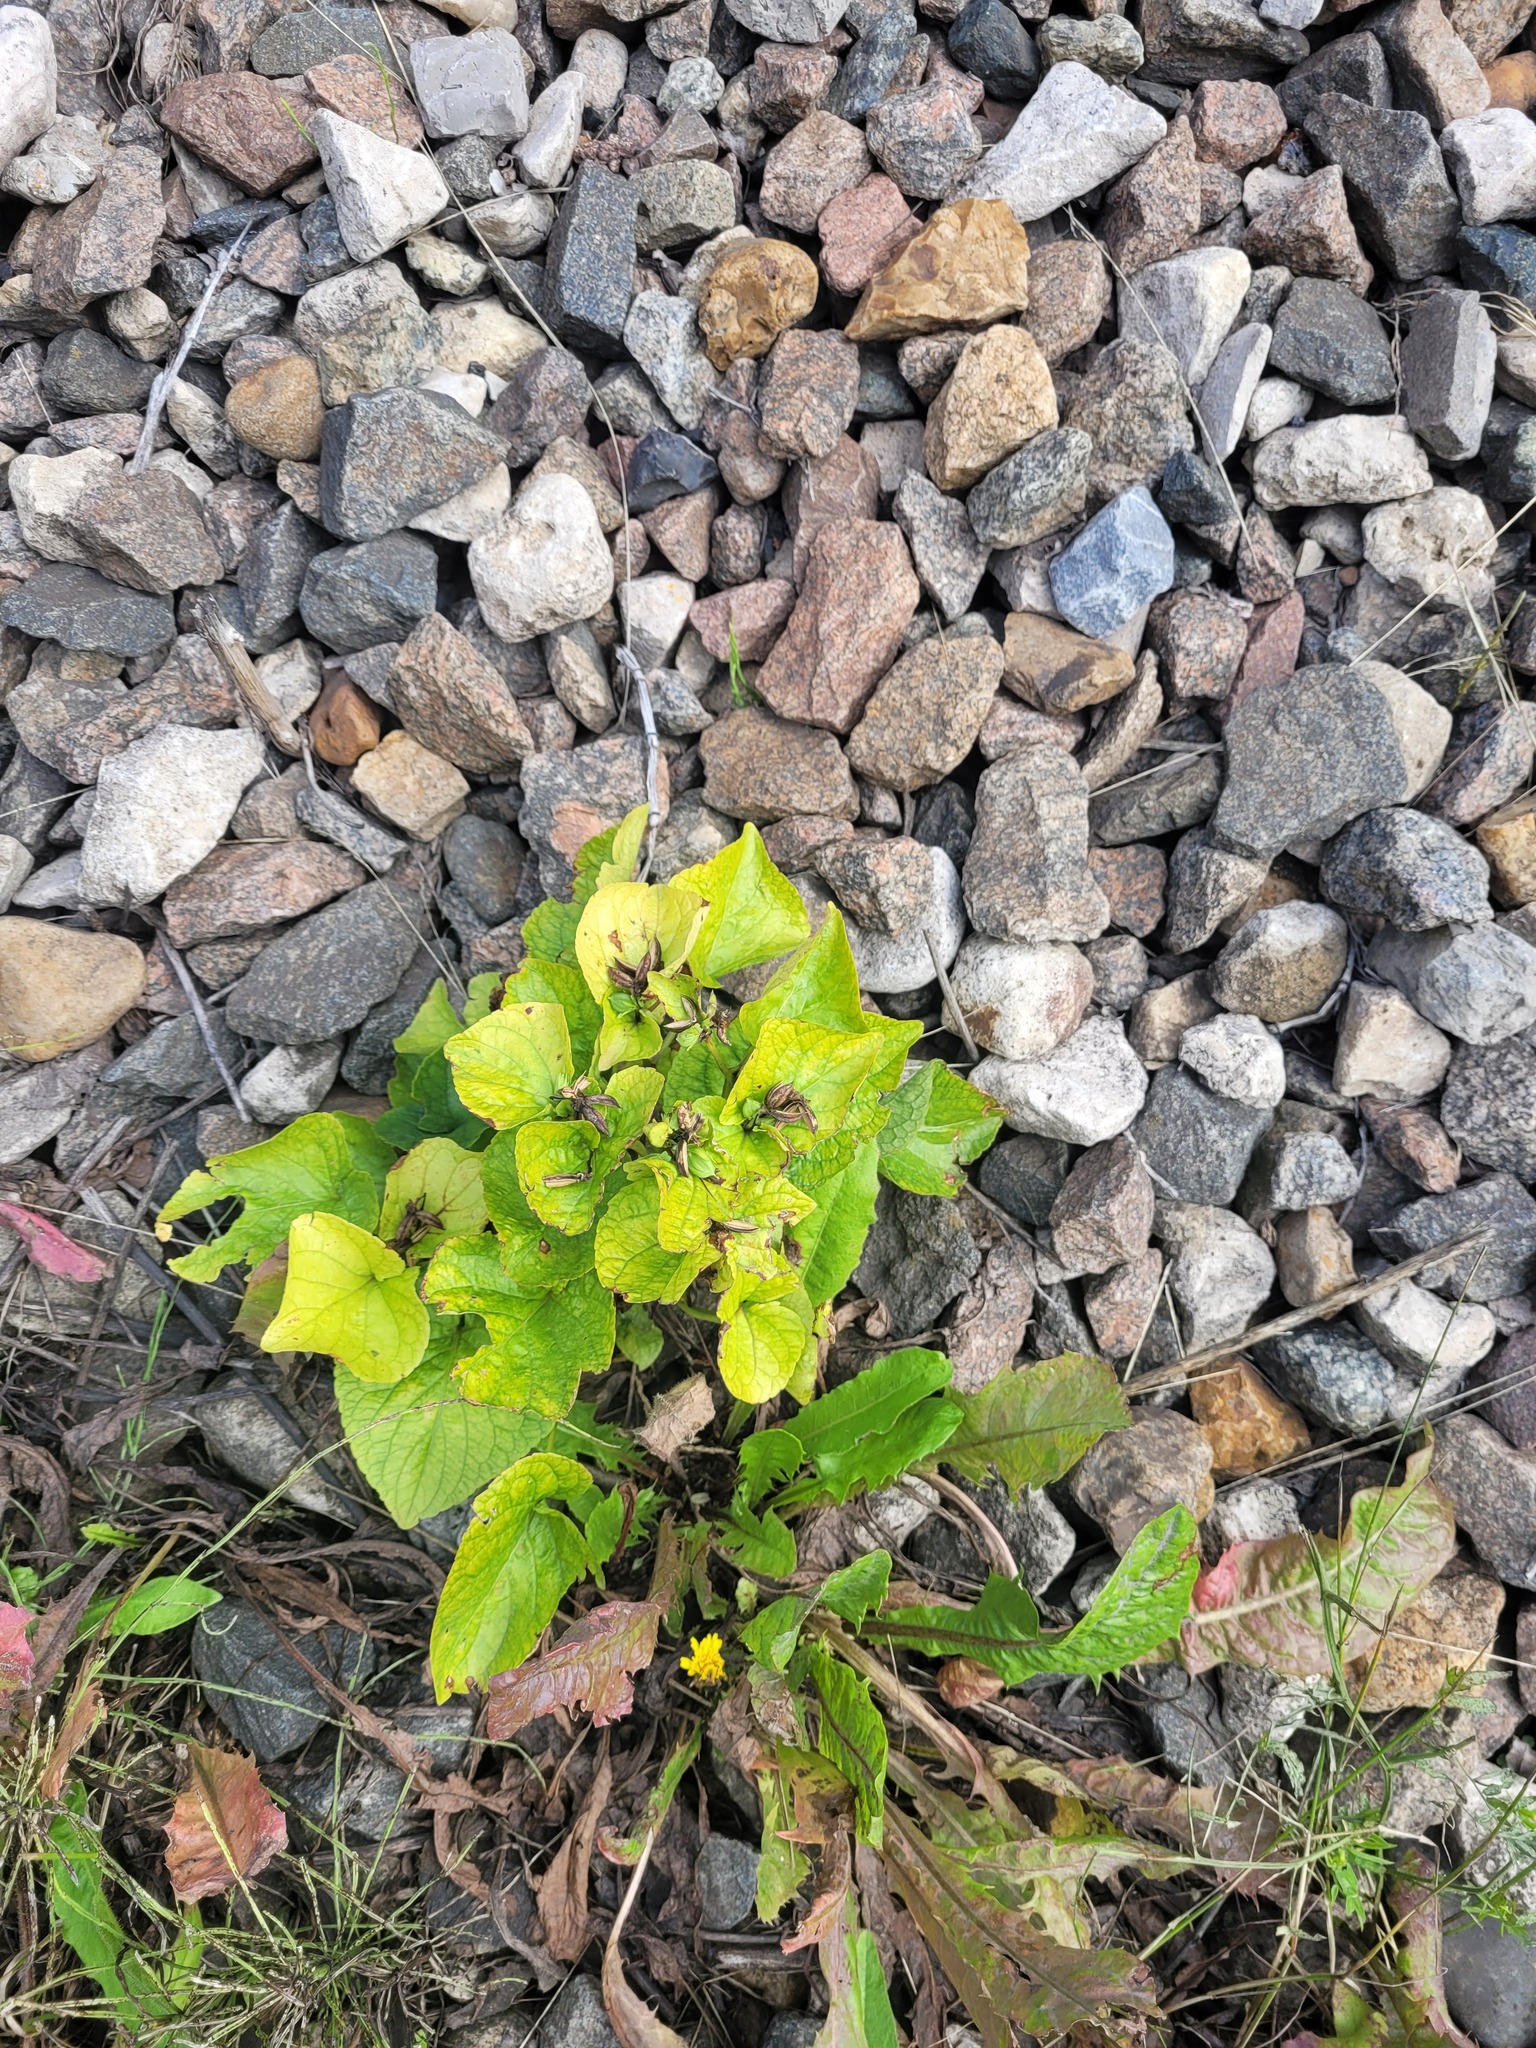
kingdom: Plantae
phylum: Tracheophyta
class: Magnoliopsida
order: Malpighiales
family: Violaceae
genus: Viola
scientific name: Viola mirabilis
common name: Wonder violet
